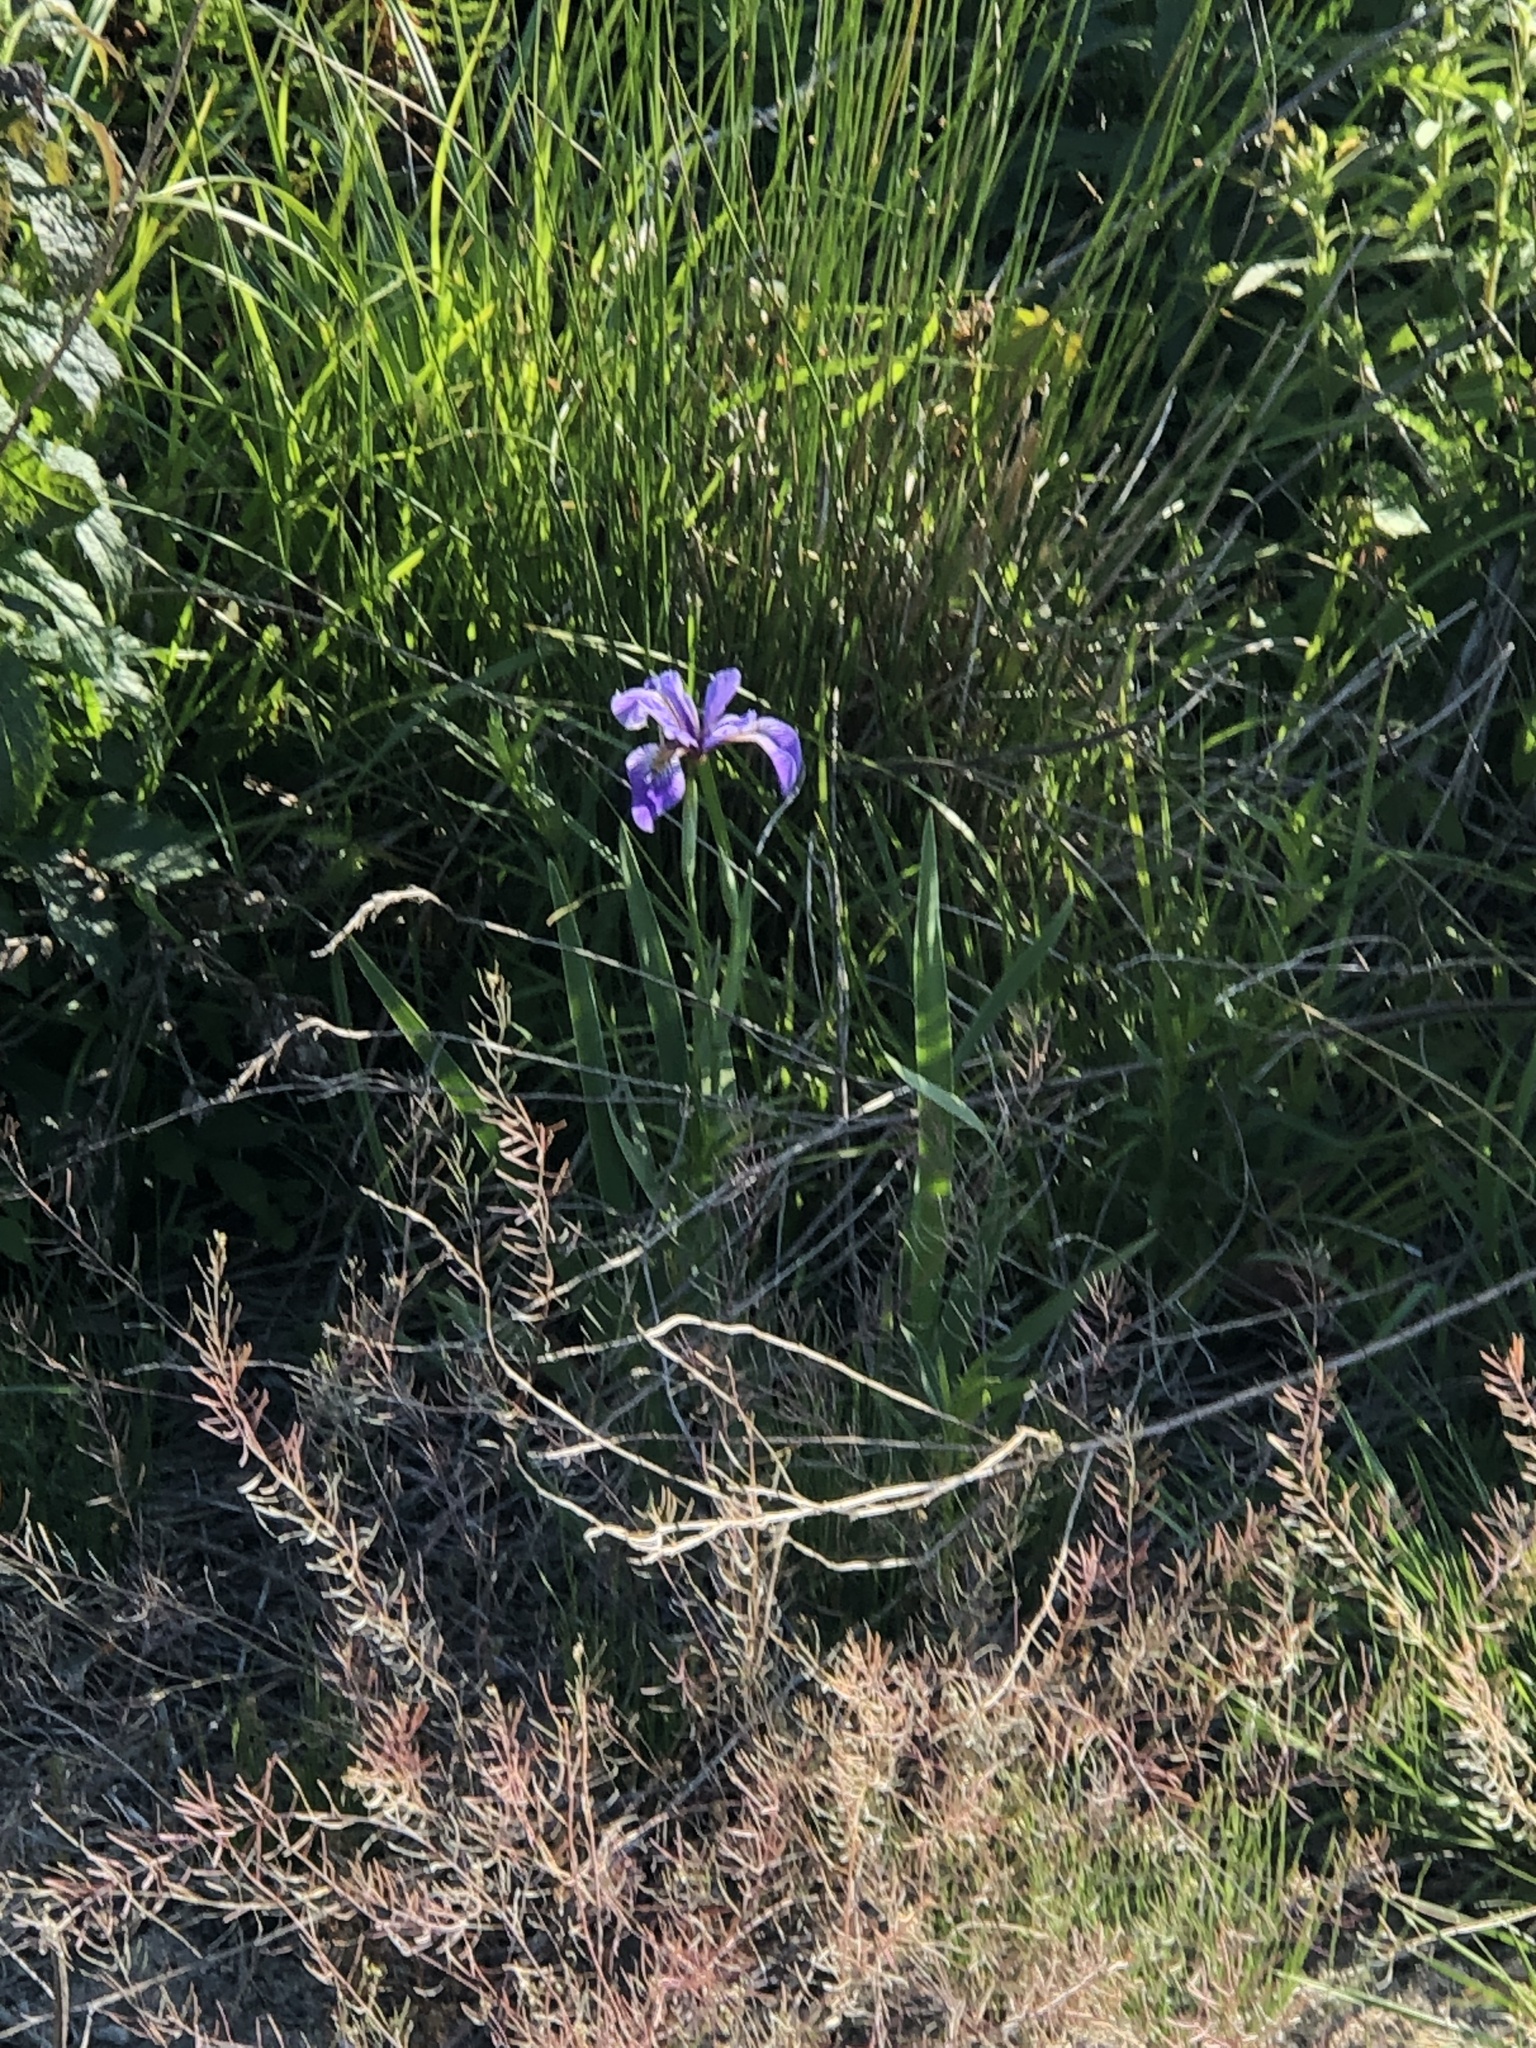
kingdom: Plantae
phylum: Tracheophyta
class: Liliopsida
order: Asparagales
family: Iridaceae
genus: Iris
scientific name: Iris versicolor
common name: Purple iris
